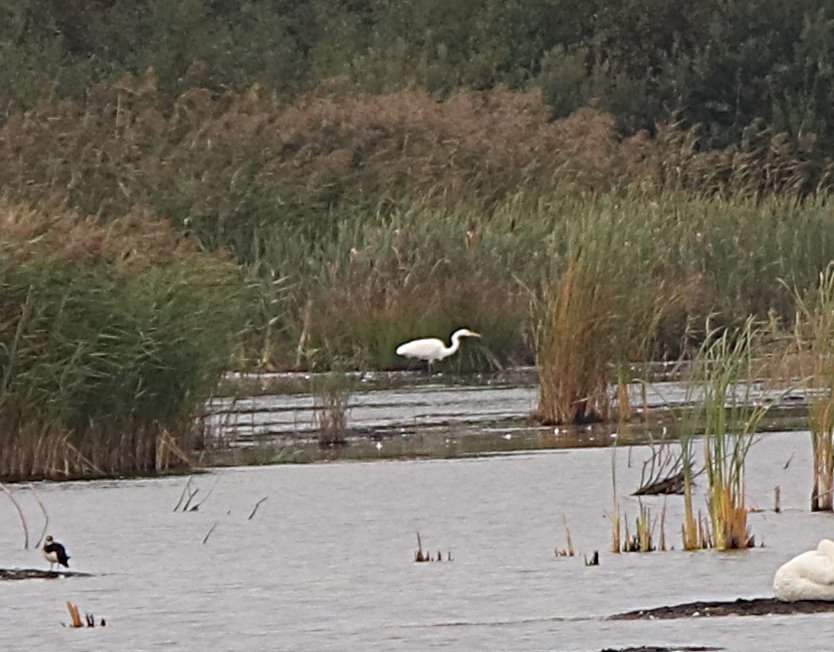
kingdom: Animalia
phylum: Chordata
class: Aves
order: Pelecaniformes
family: Ardeidae
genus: Ardea
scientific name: Ardea alba
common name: Great egret
